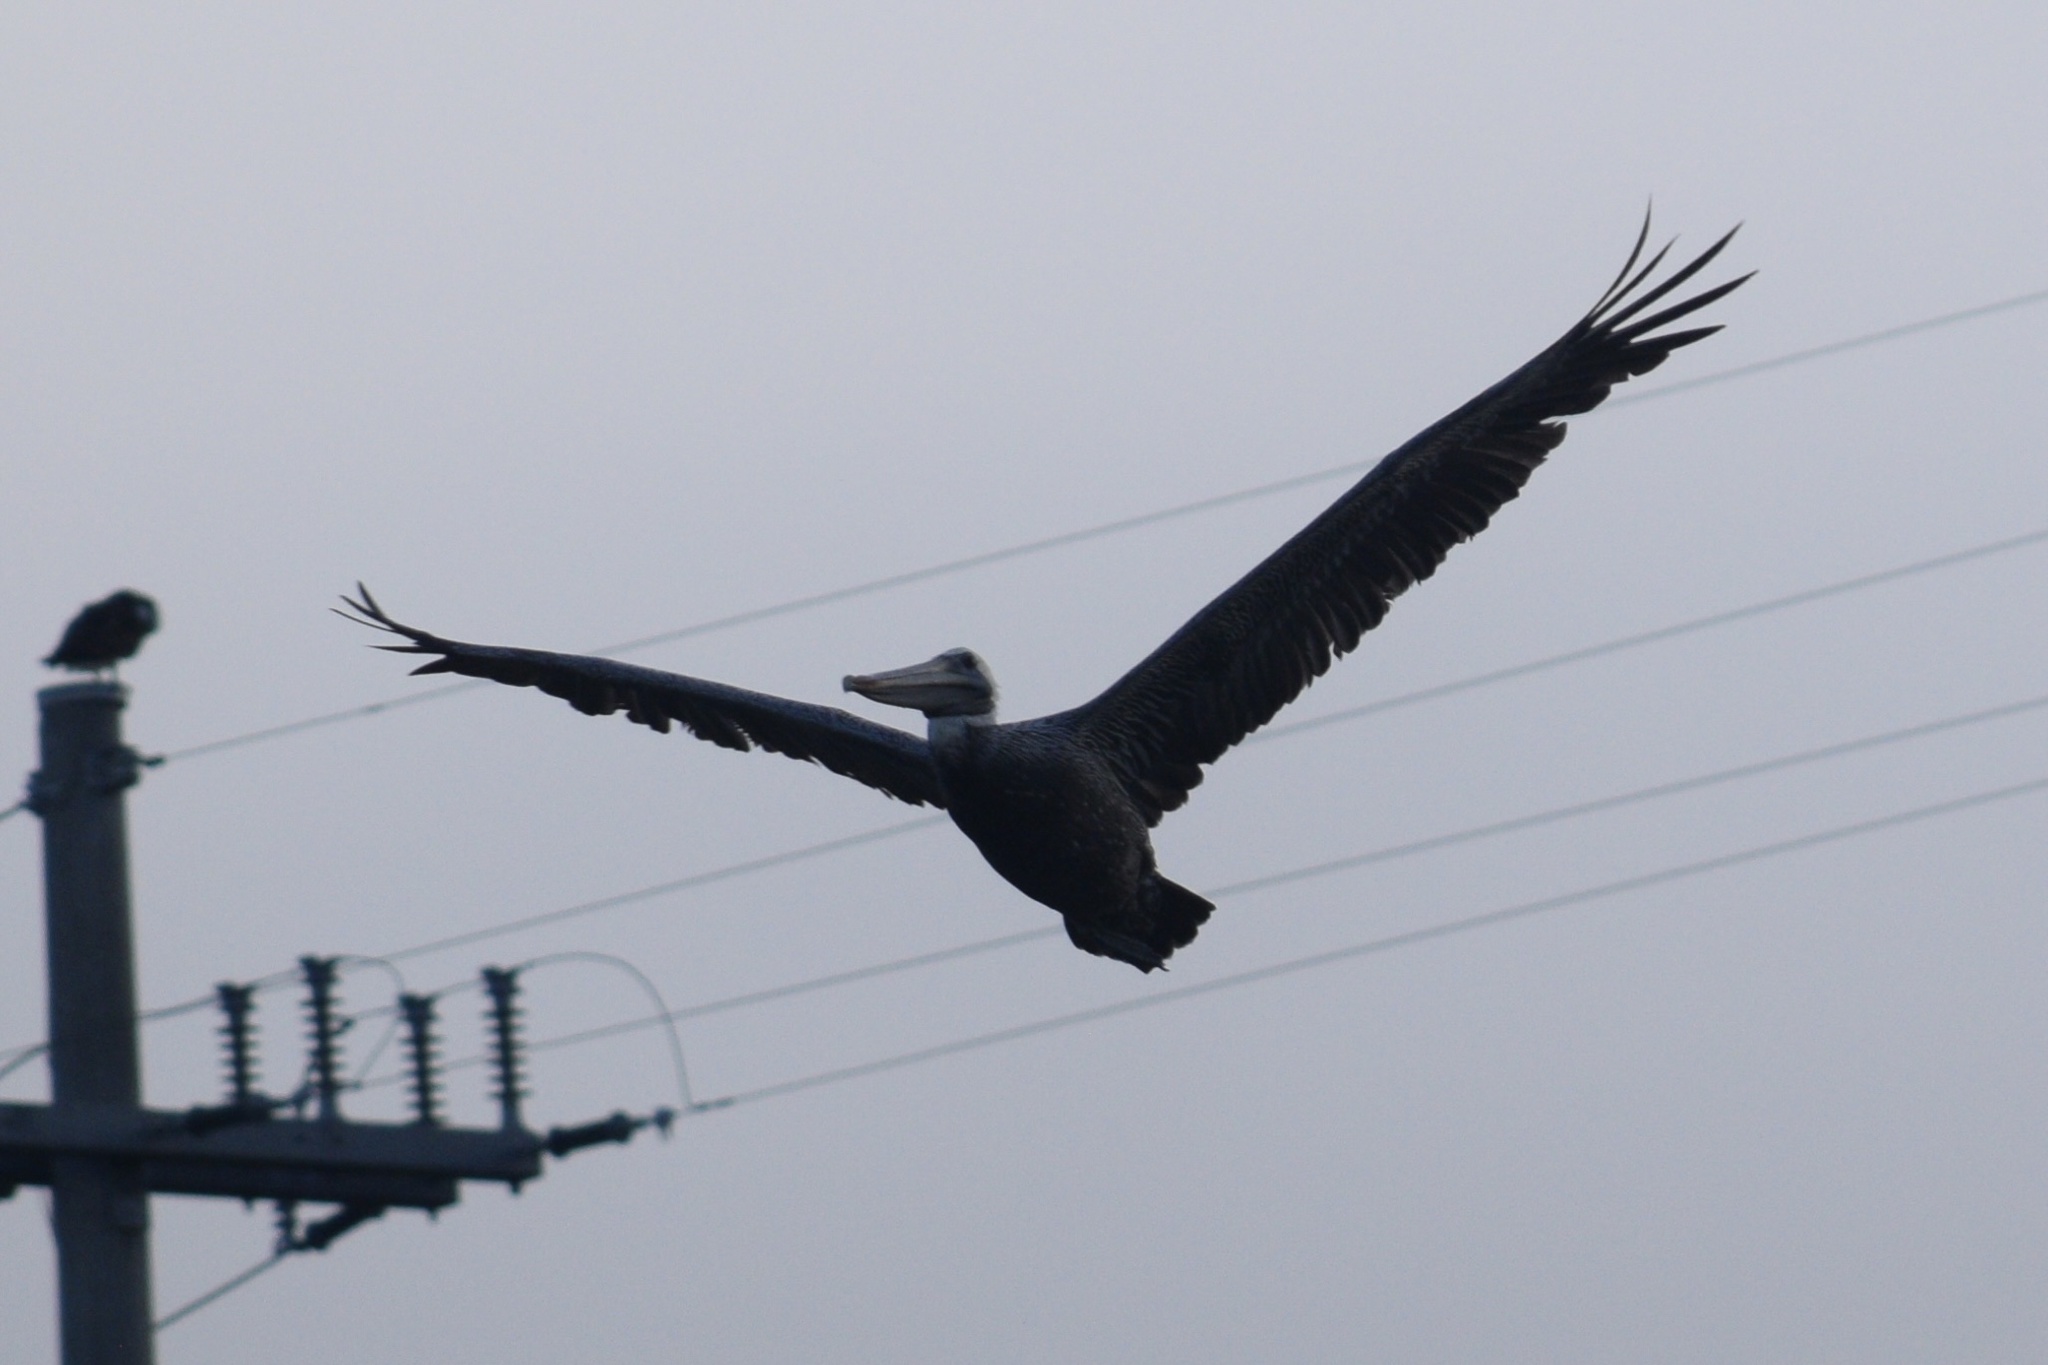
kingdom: Animalia
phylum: Chordata
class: Aves
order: Pelecaniformes
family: Pelecanidae
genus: Pelecanus
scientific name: Pelecanus occidentalis
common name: Brown pelican
